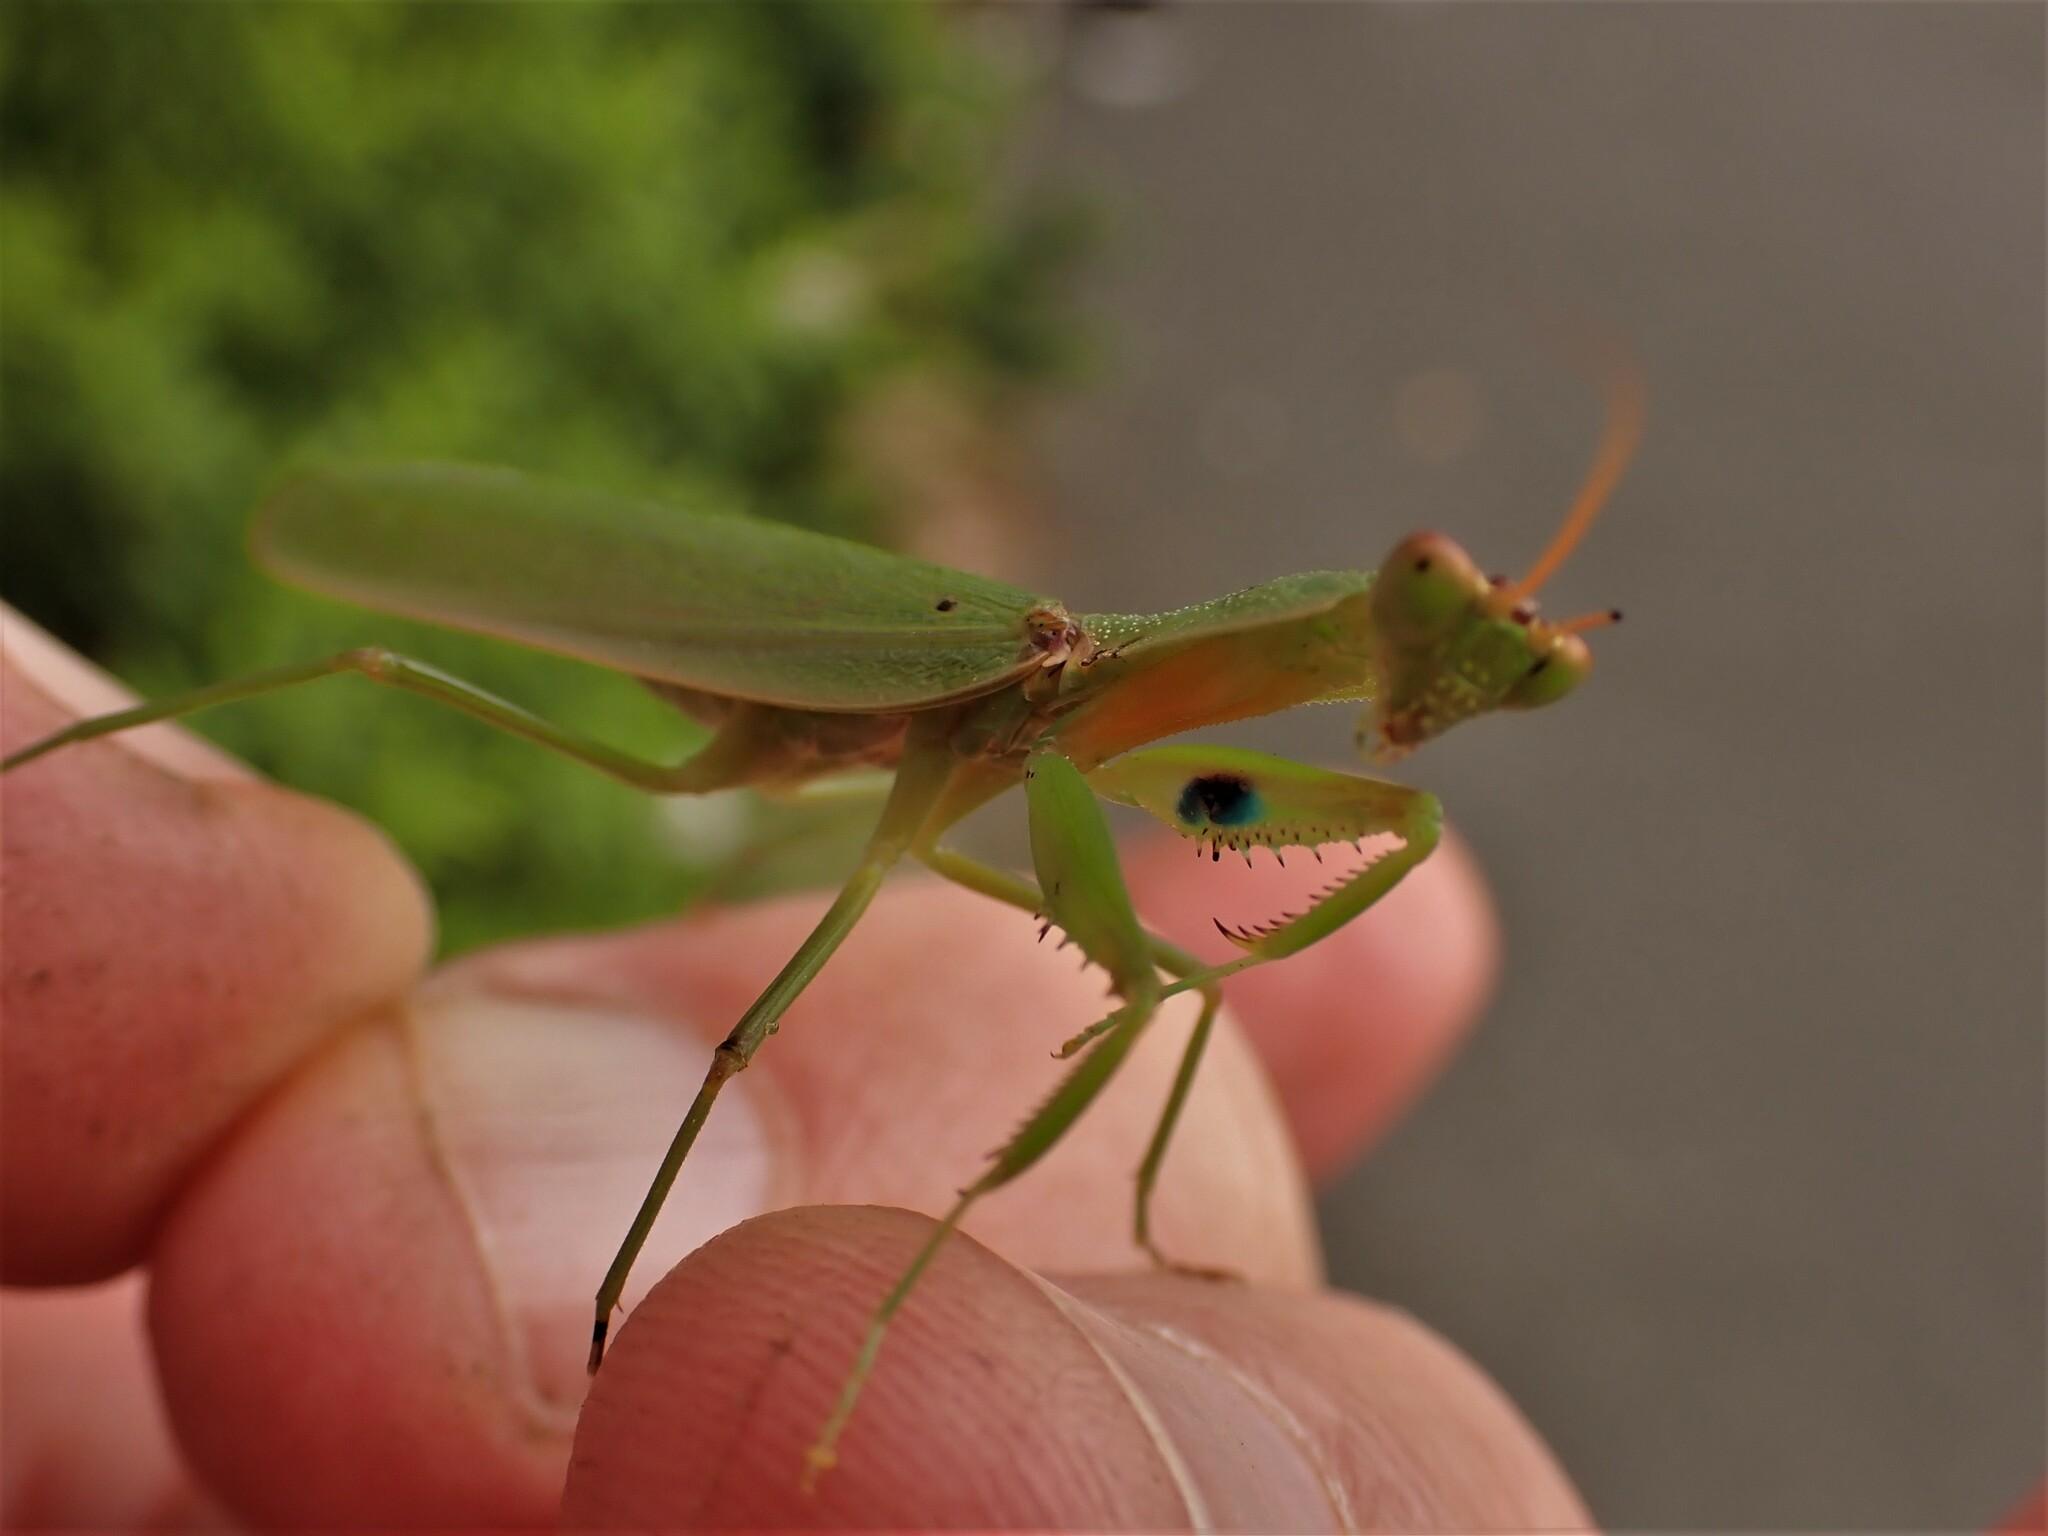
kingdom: Animalia
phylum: Arthropoda
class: Insecta
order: Mantodea
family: Mantidae
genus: Orthodera
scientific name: Orthodera novaezealandiae
